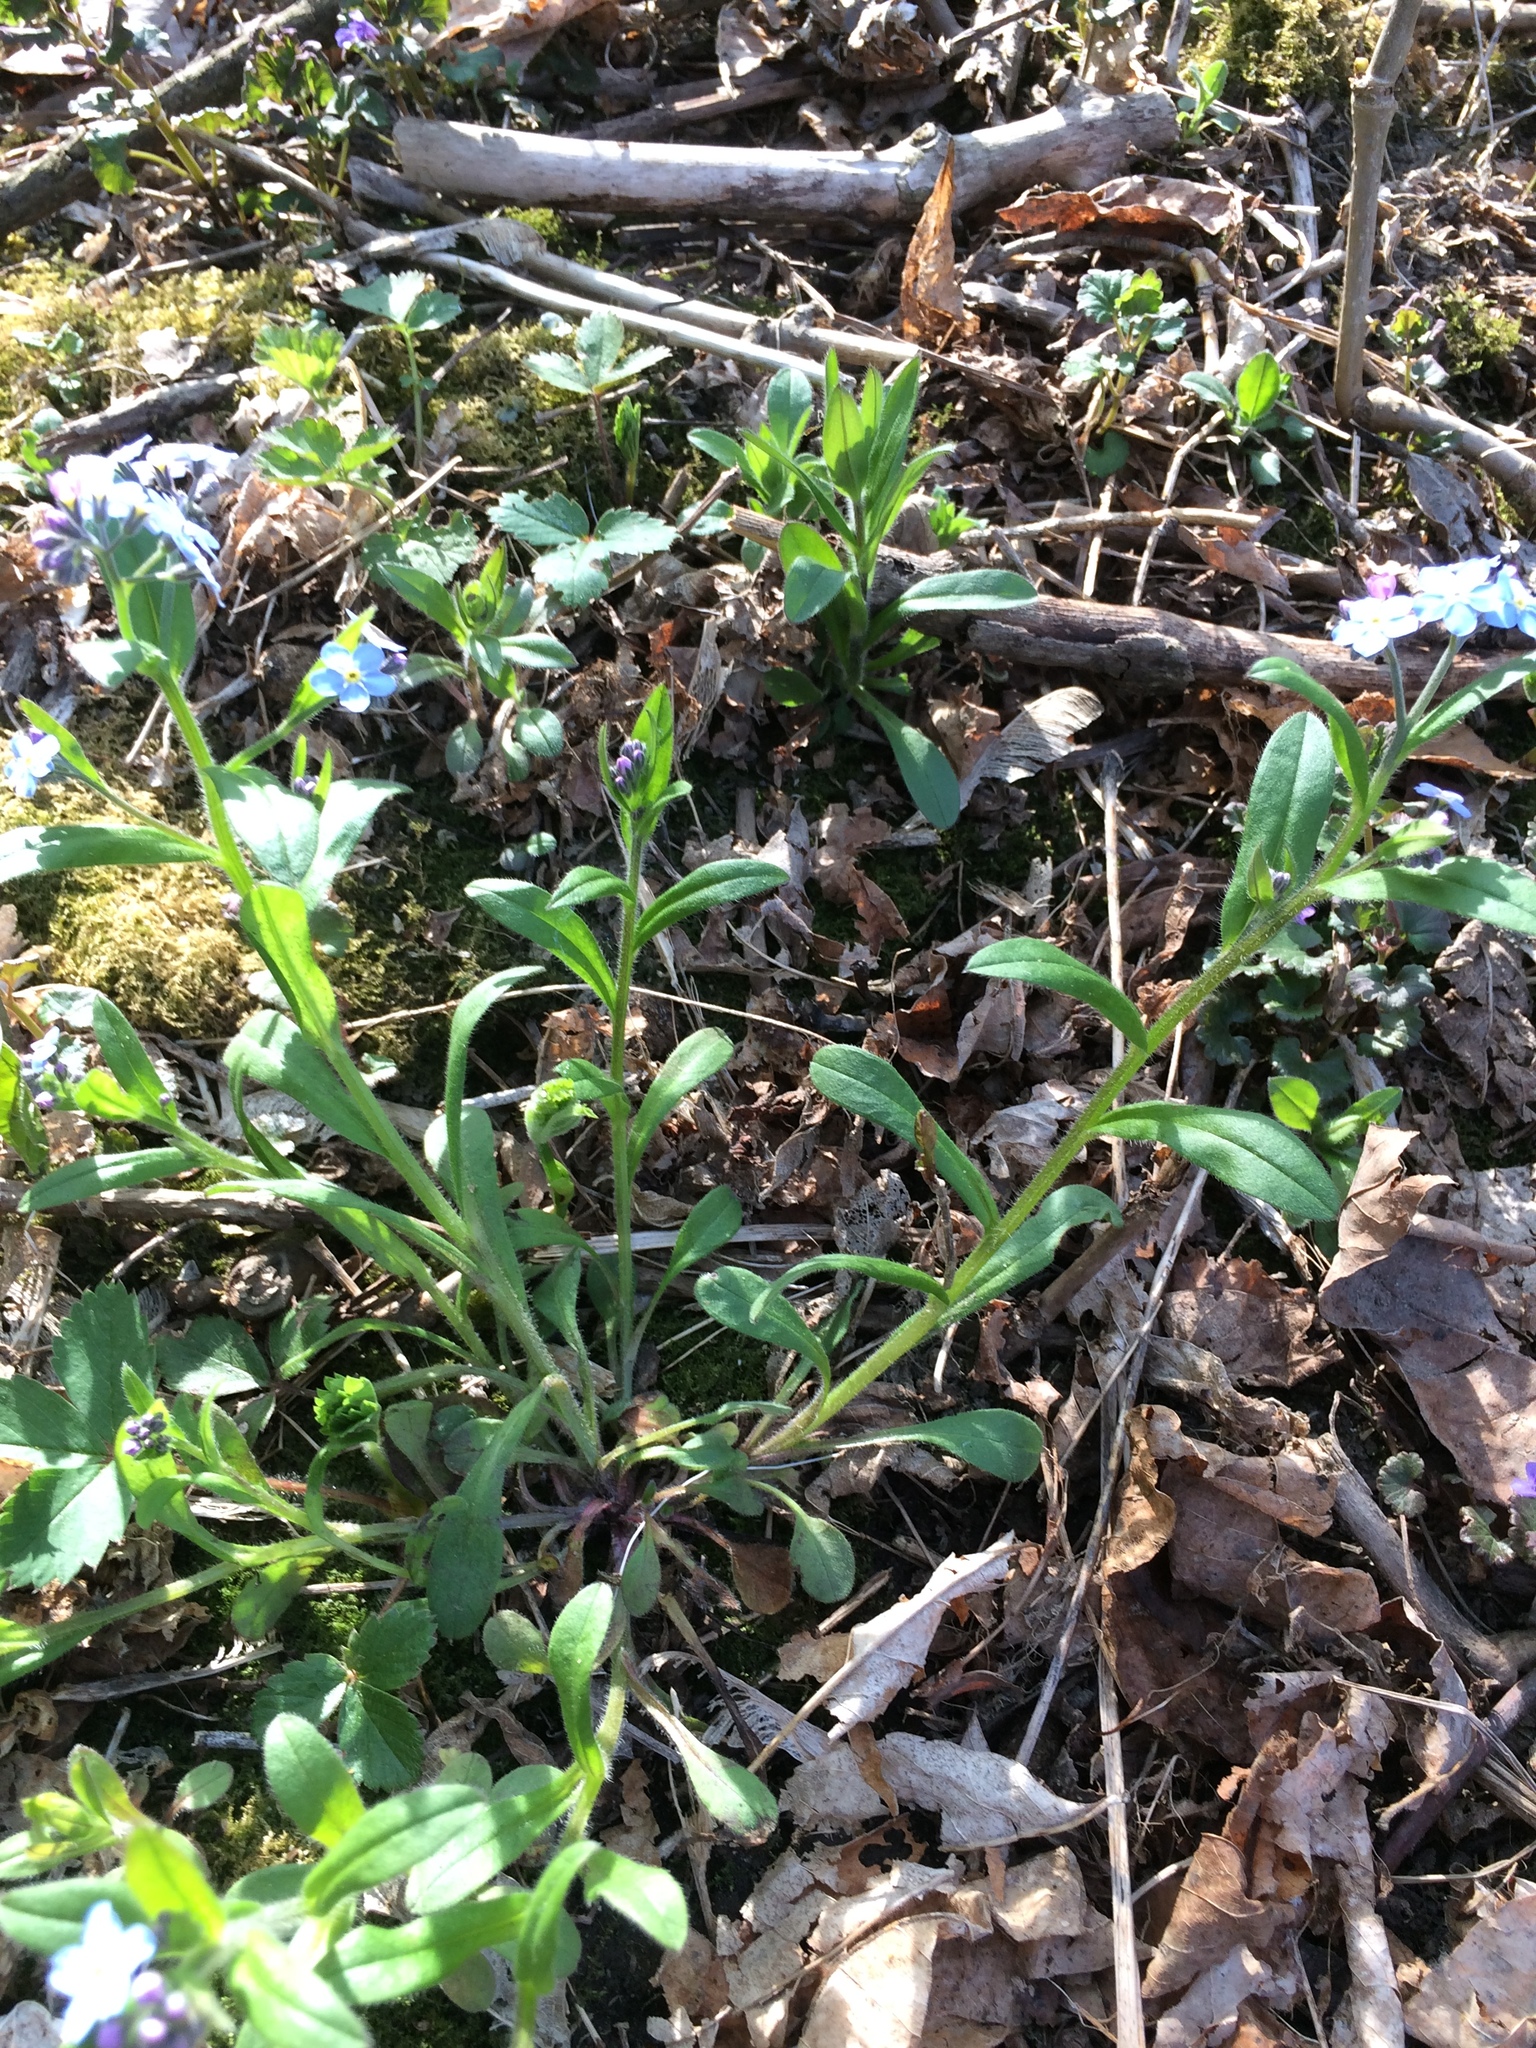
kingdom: Plantae
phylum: Tracheophyta
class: Magnoliopsida
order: Boraginales
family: Boraginaceae
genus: Myosotis
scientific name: Myosotis sylvatica
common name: Wood forget-me-not
